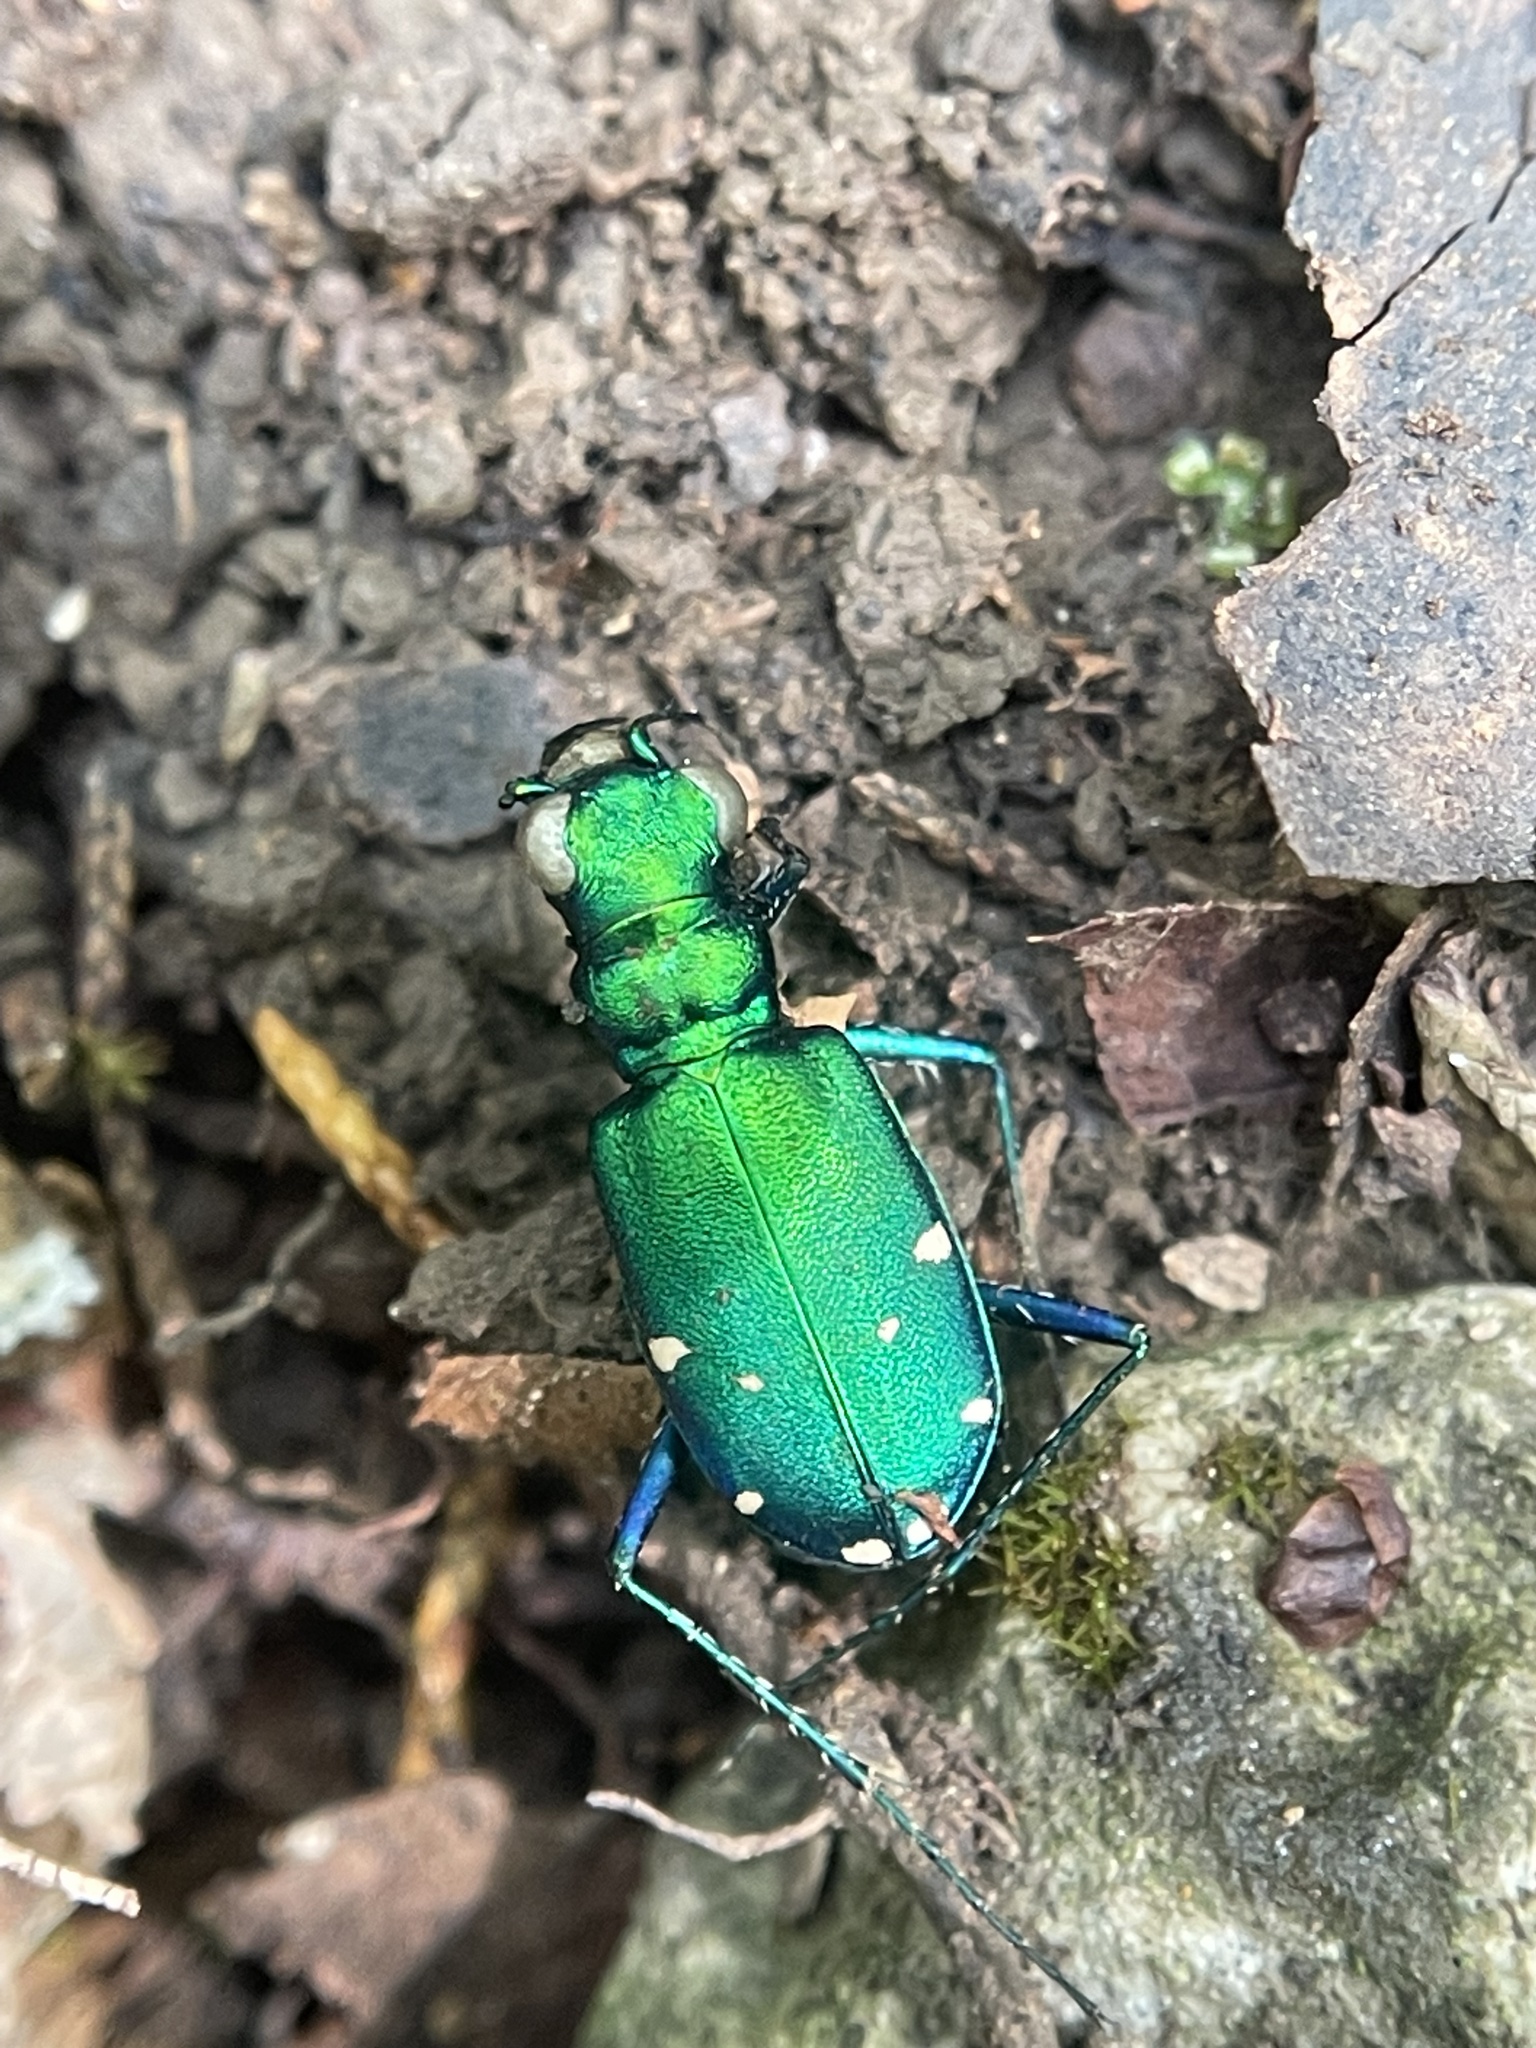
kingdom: Animalia
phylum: Arthropoda
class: Insecta
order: Coleoptera
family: Carabidae
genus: Cicindela
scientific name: Cicindela sexguttata
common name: Six-spotted tiger beetle
